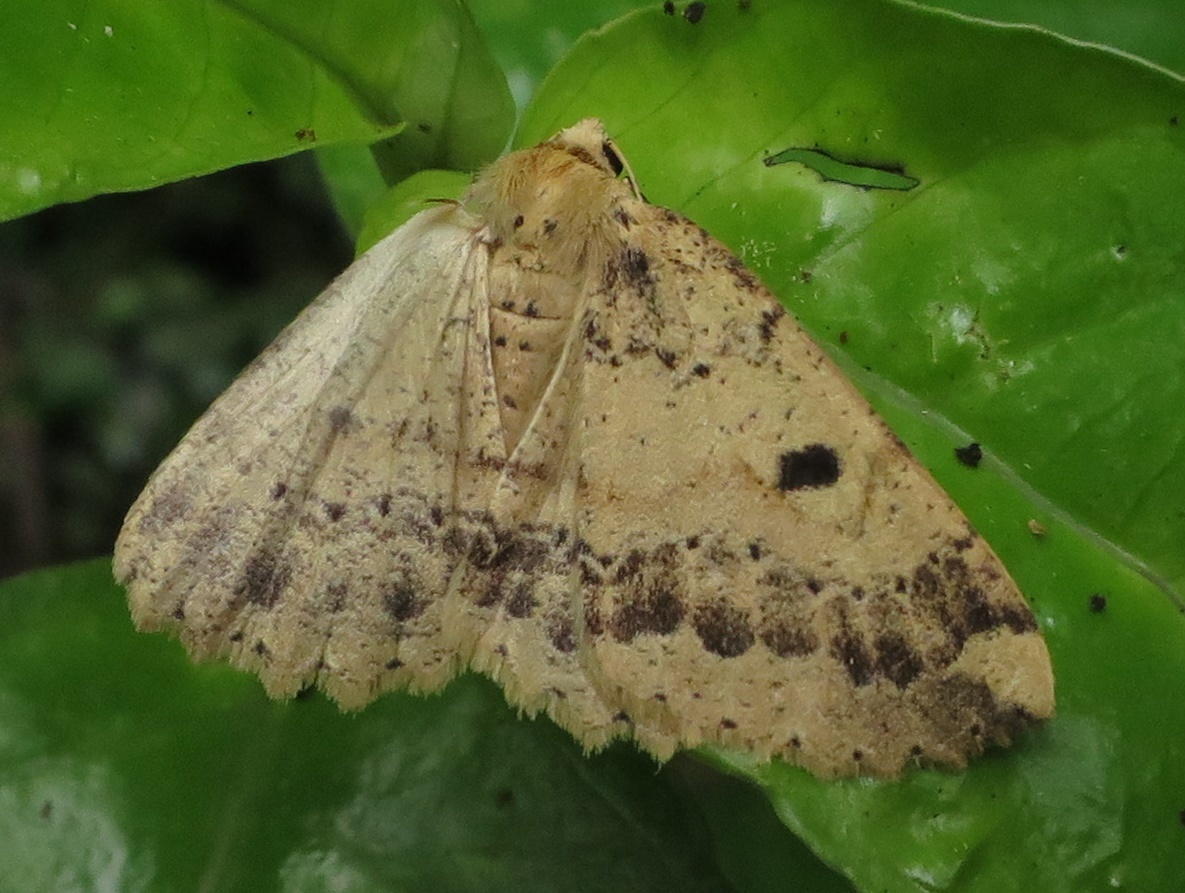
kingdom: Animalia
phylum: Arthropoda
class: Insecta
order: Lepidoptera
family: Geometridae
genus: Cleora
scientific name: Cleora scriptaria
